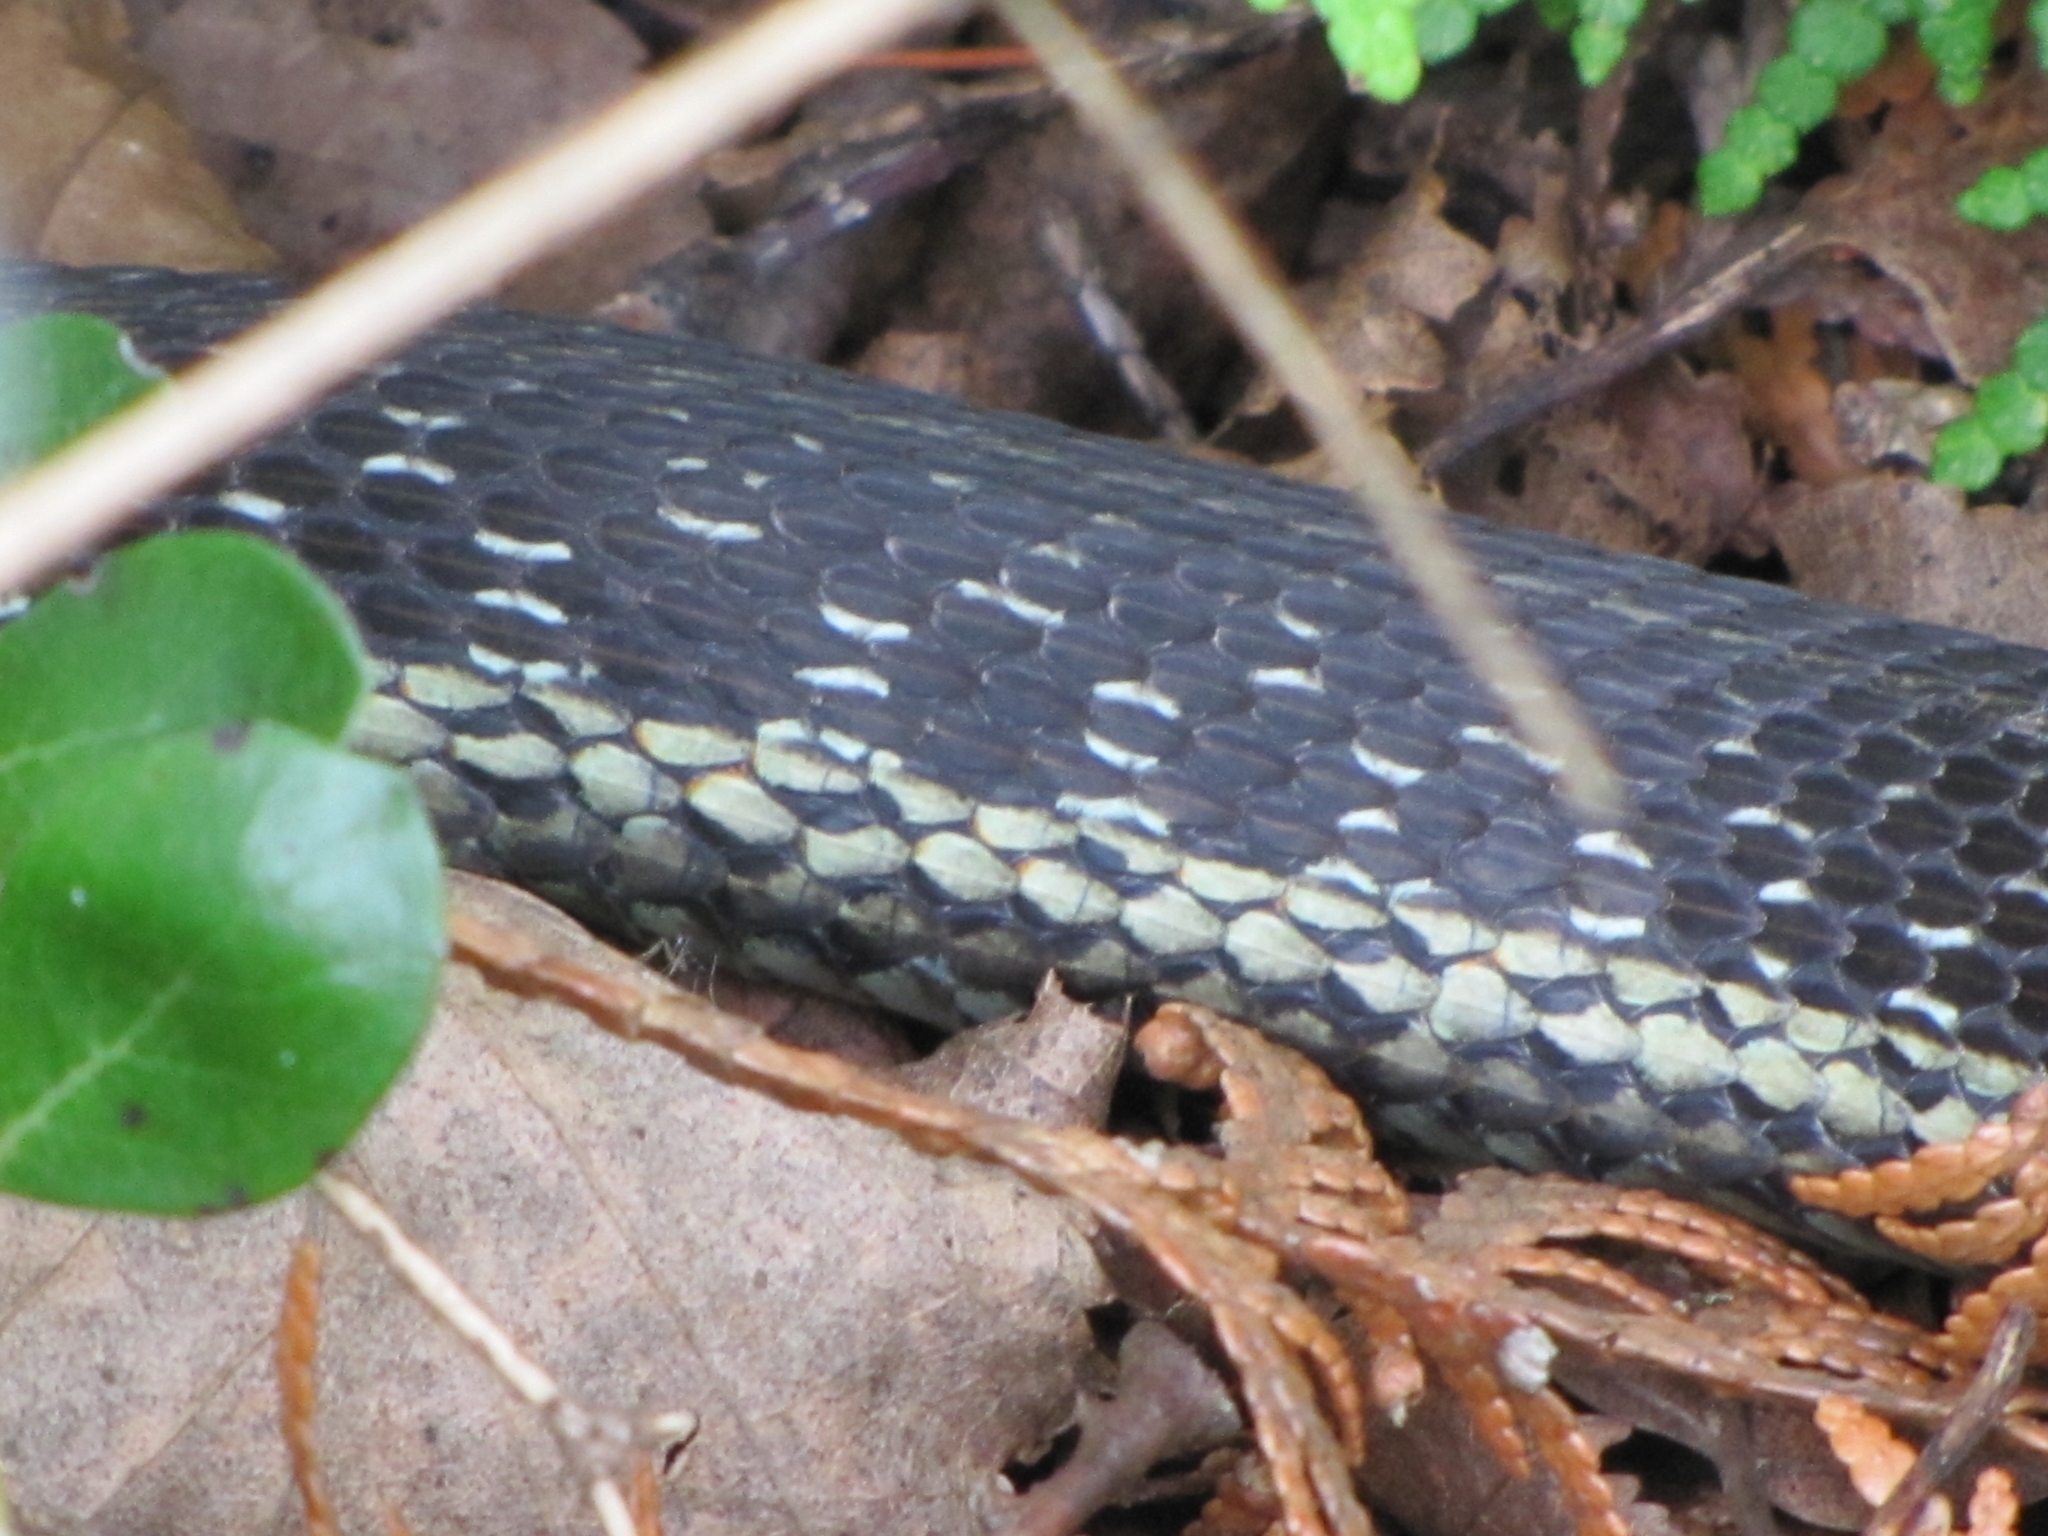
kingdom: Animalia
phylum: Chordata
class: Squamata
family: Colubridae
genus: Thamnophis
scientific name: Thamnophis sirtalis
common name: Common garter snake
